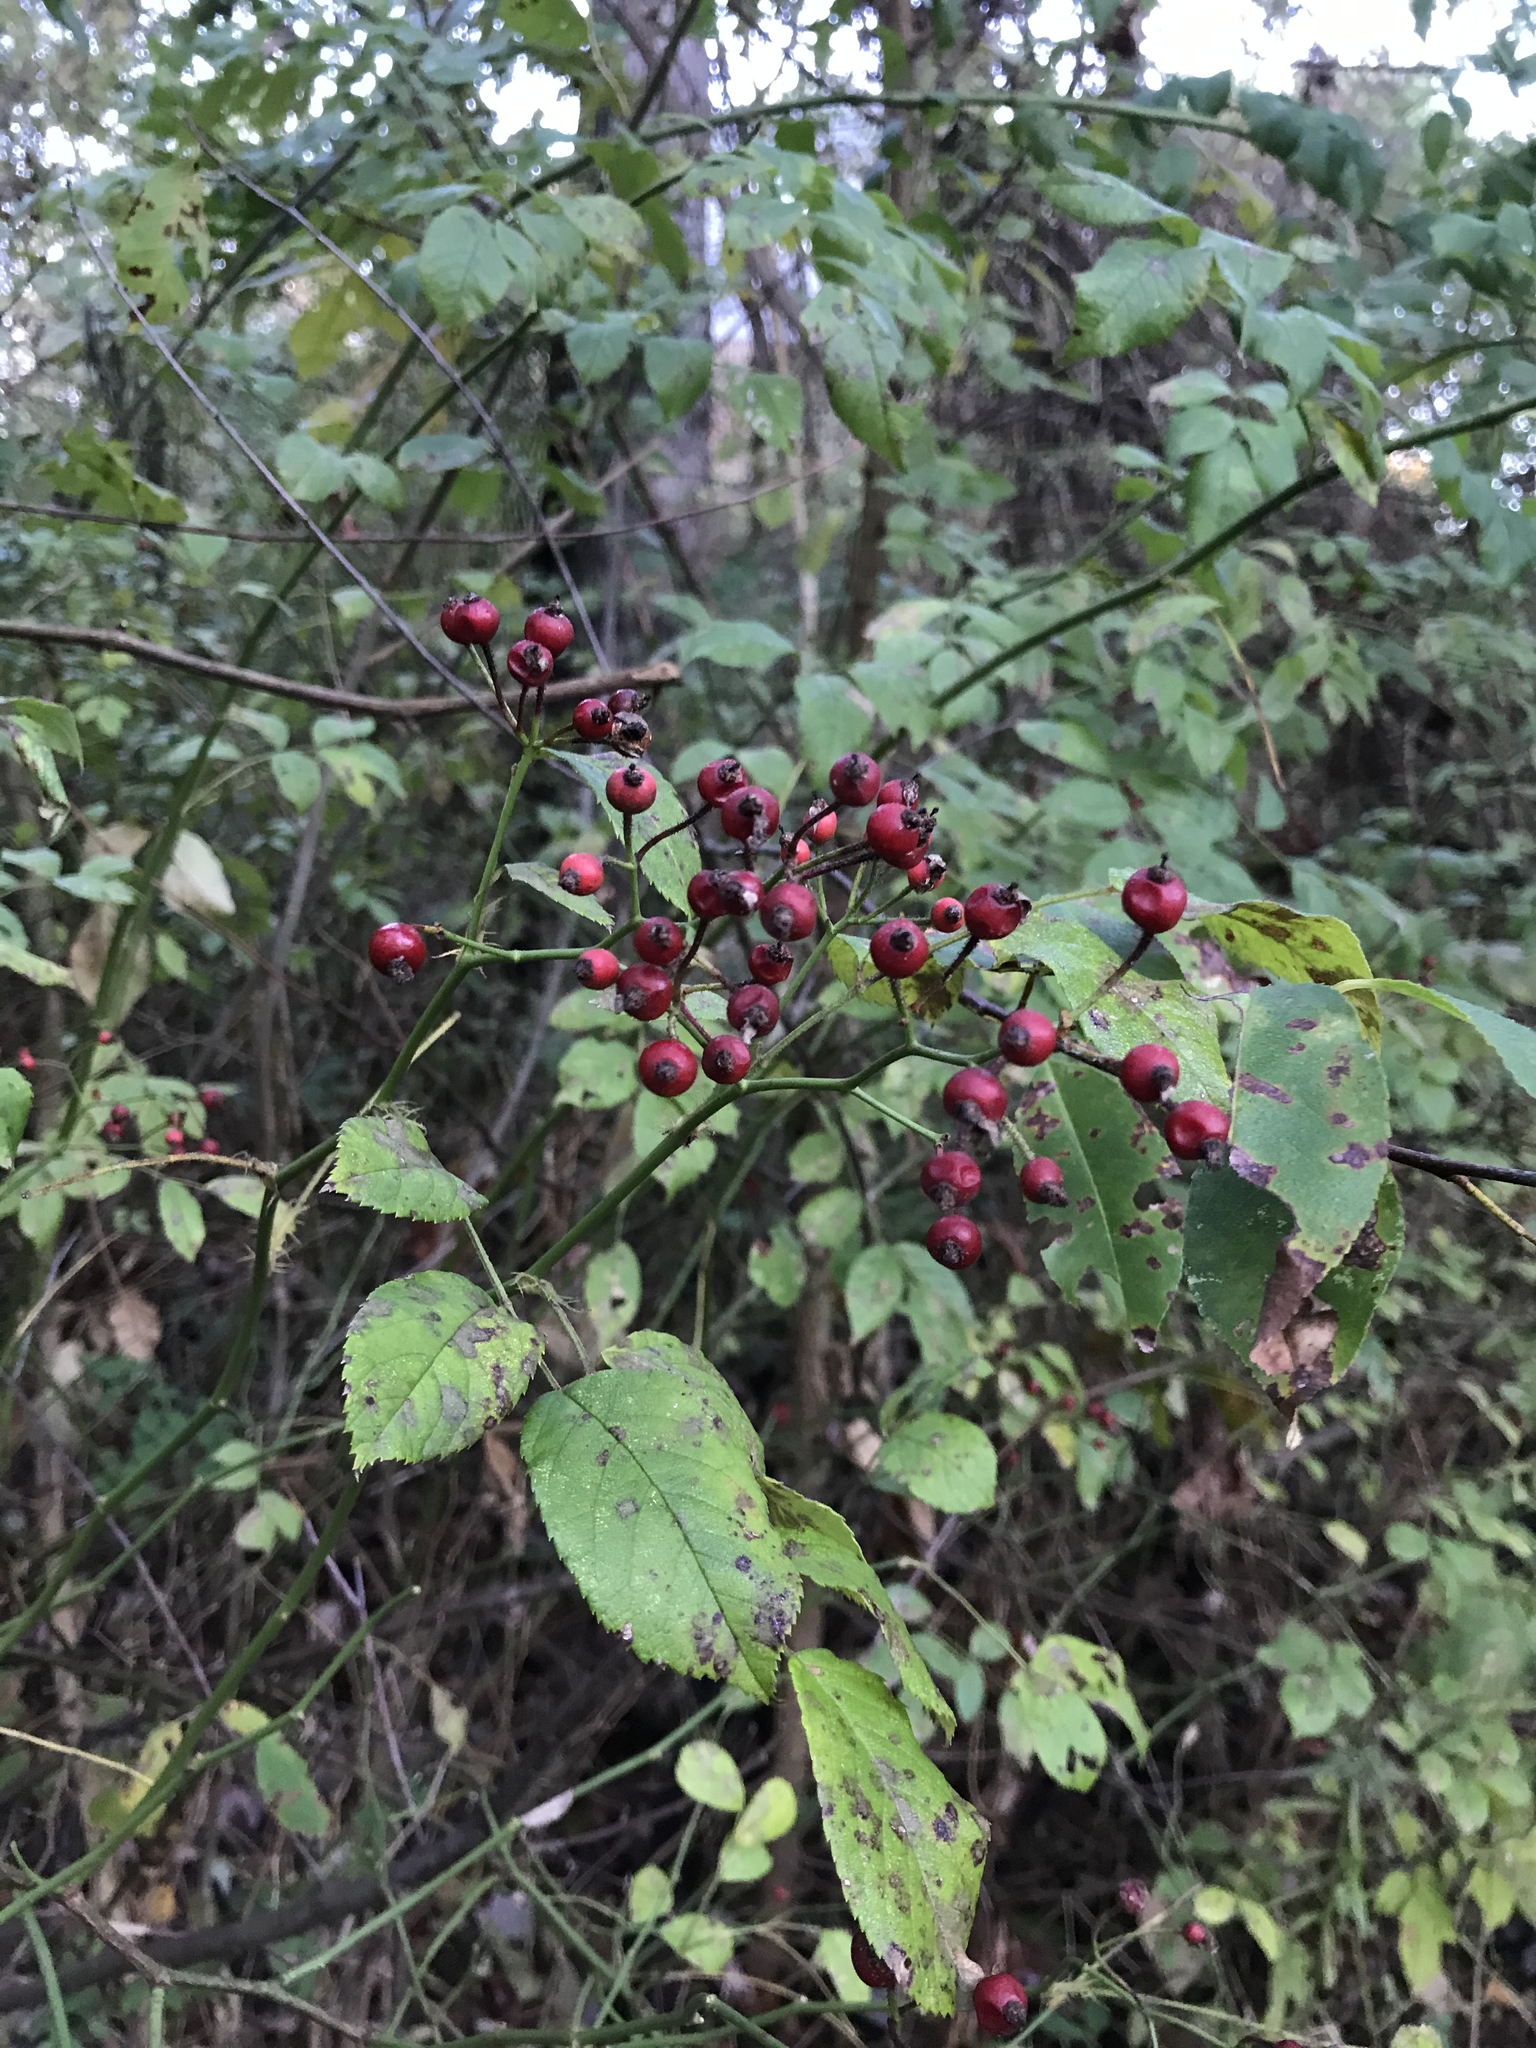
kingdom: Plantae
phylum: Tracheophyta
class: Magnoliopsida
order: Rosales
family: Rosaceae
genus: Rosa
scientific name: Rosa multiflora
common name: Multiflora rose
